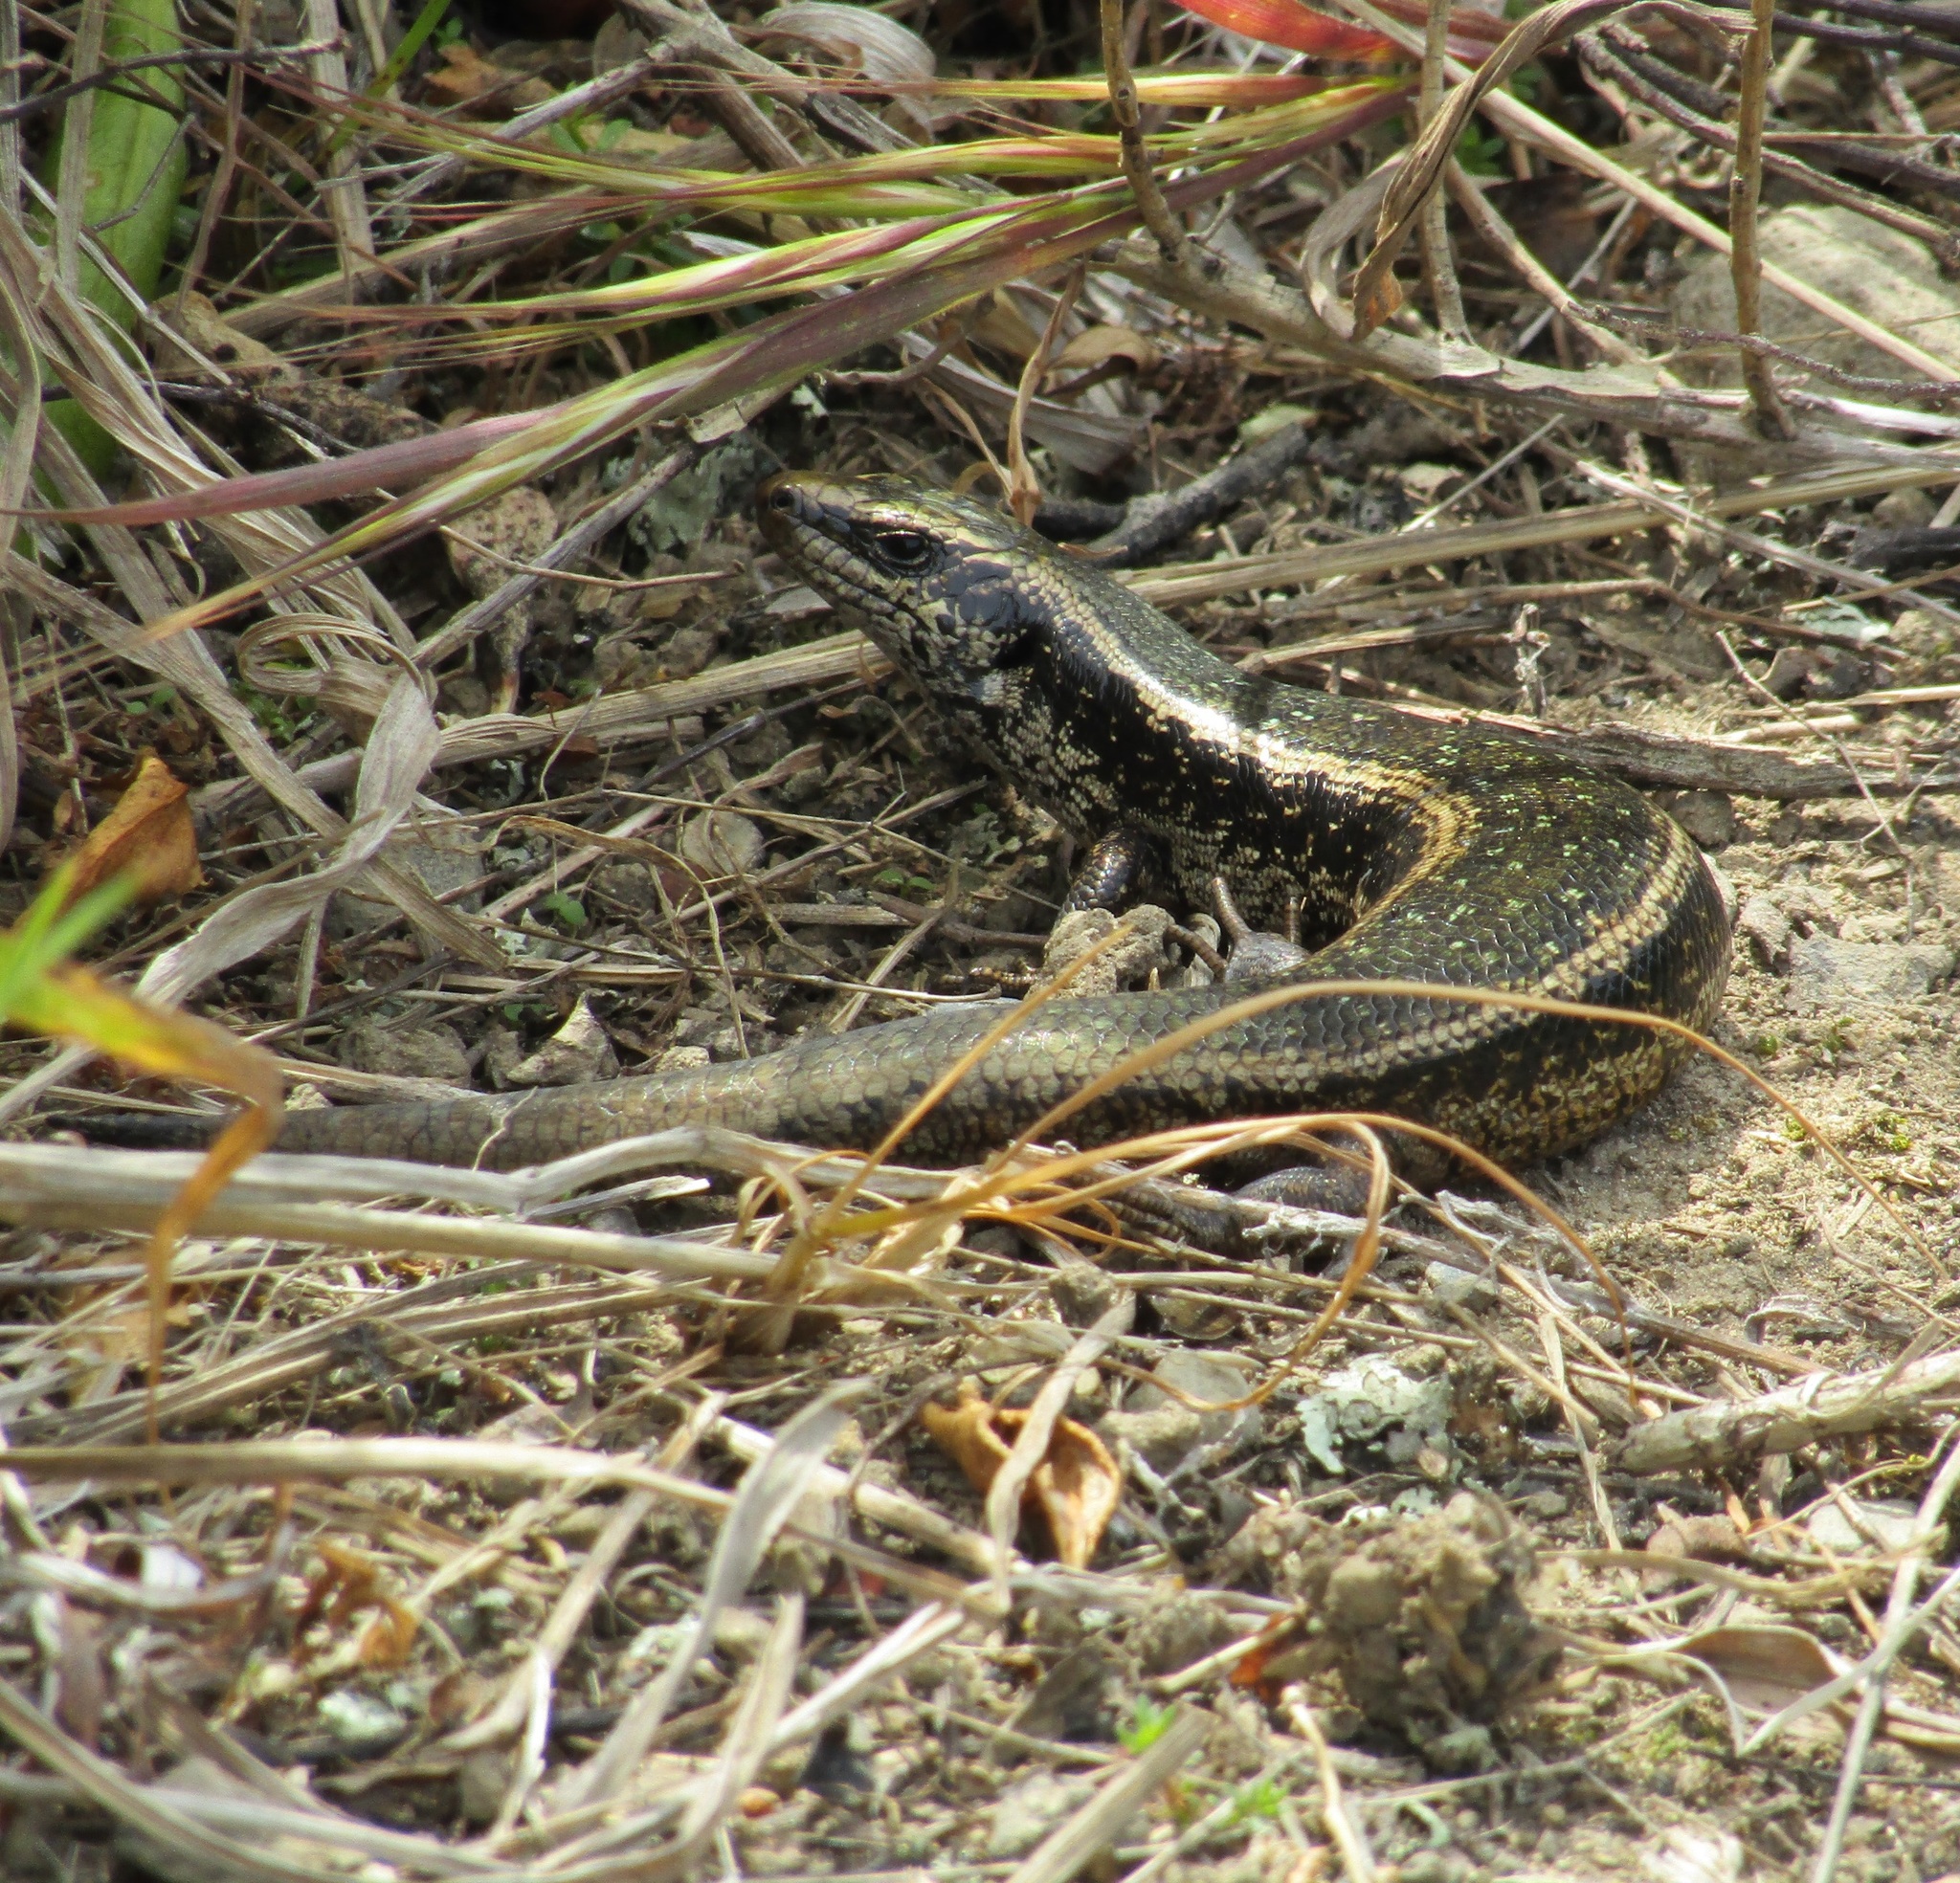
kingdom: Animalia
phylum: Chordata
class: Squamata
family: Scincidae
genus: Oligosoma
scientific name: Oligosoma kokowai
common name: Northern spotted skink
